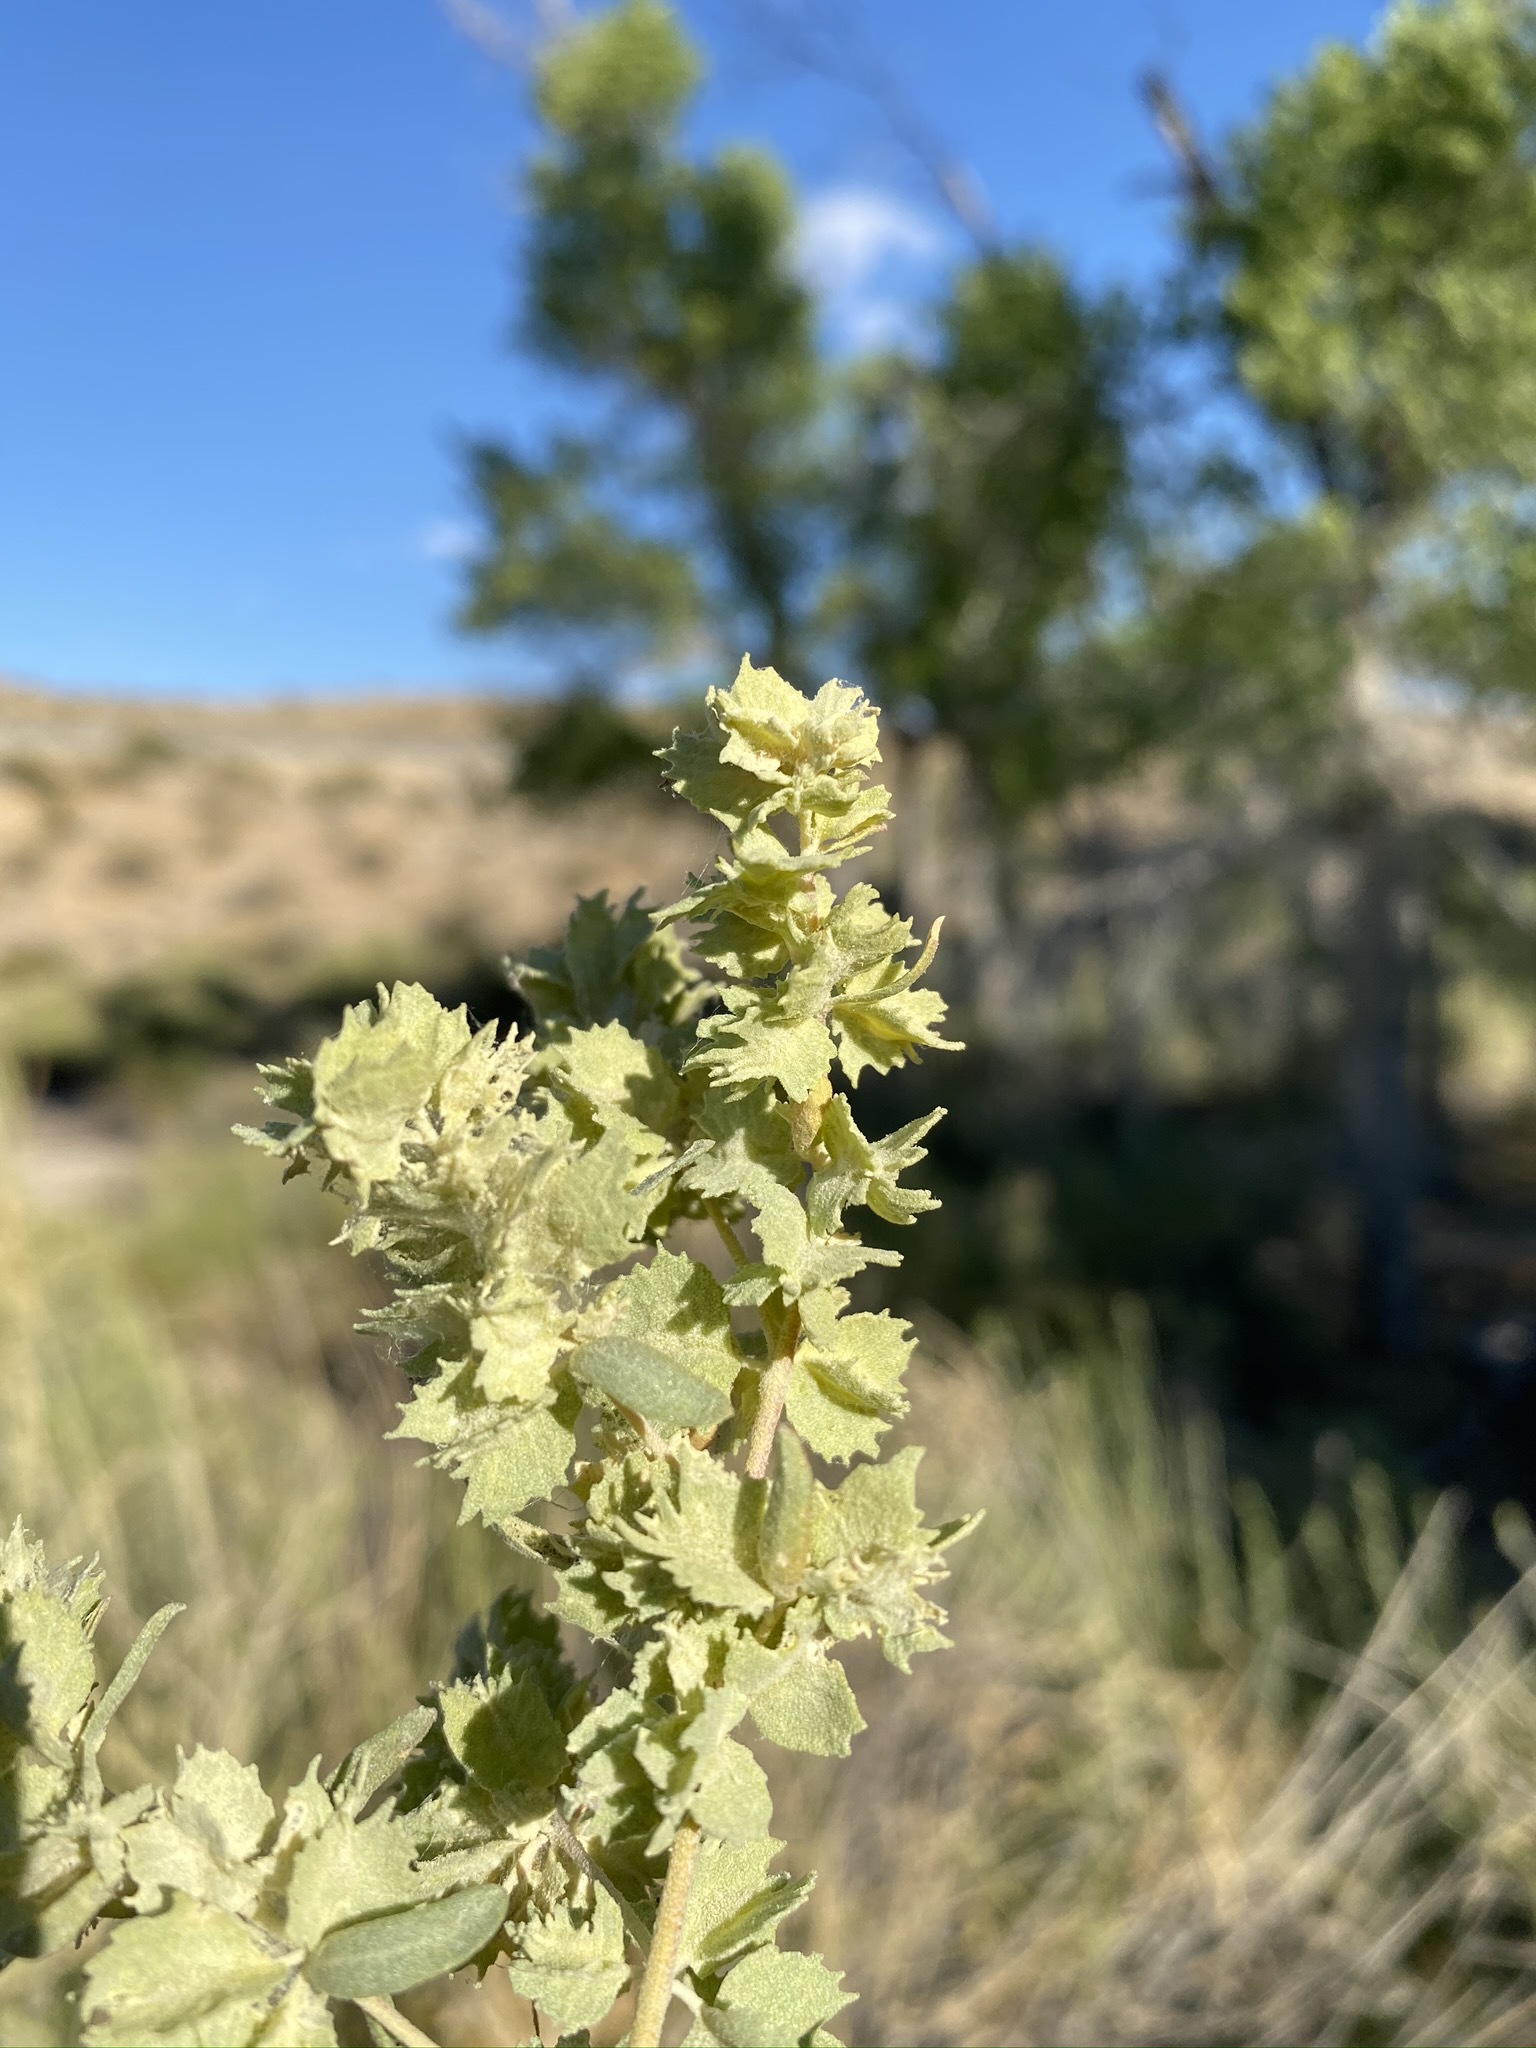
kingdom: Plantae
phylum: Tracheophyta
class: Magnoliopsida
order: Caryophyllales
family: Amaranthaceae
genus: Atriplex
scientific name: Atriplex canescens
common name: Four-wing saltbush
